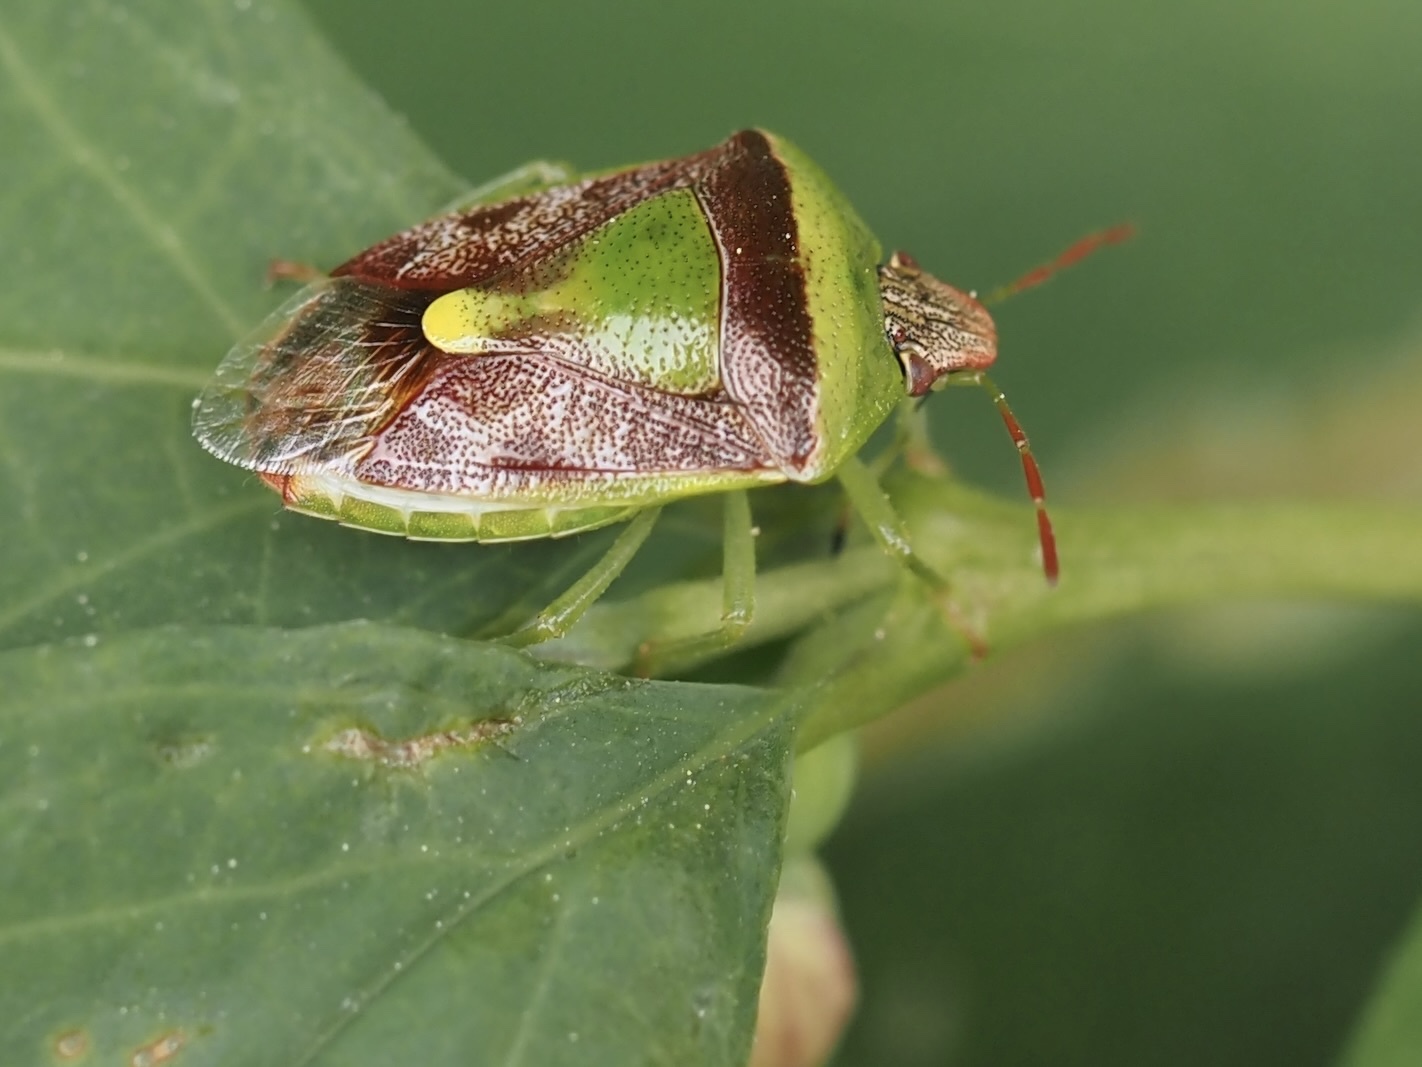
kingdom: Animalia
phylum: Arthropoda
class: Insecta
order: Hemiptera
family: Pentatomidae
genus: Banasa
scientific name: Banasa dimidiata
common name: Green burgundy stink bug
